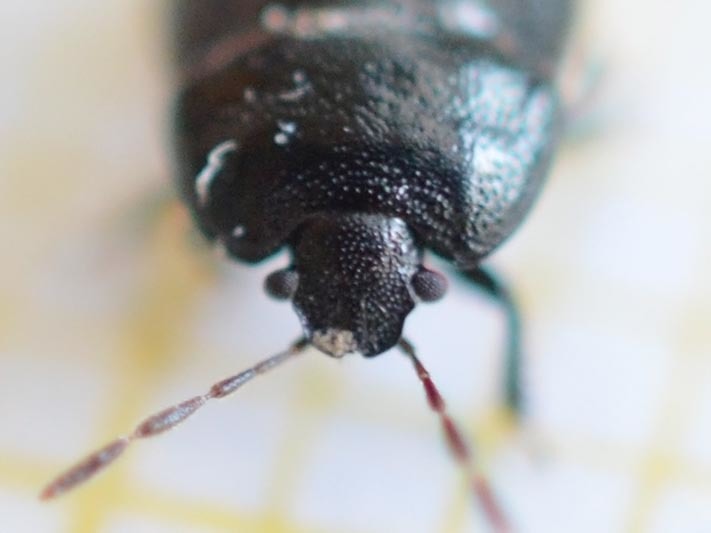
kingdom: Animalia
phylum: Arthropoda
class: Insecta
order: Hemiptera
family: Cydnidae
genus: Legnotus
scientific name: Legnotus limbosus
